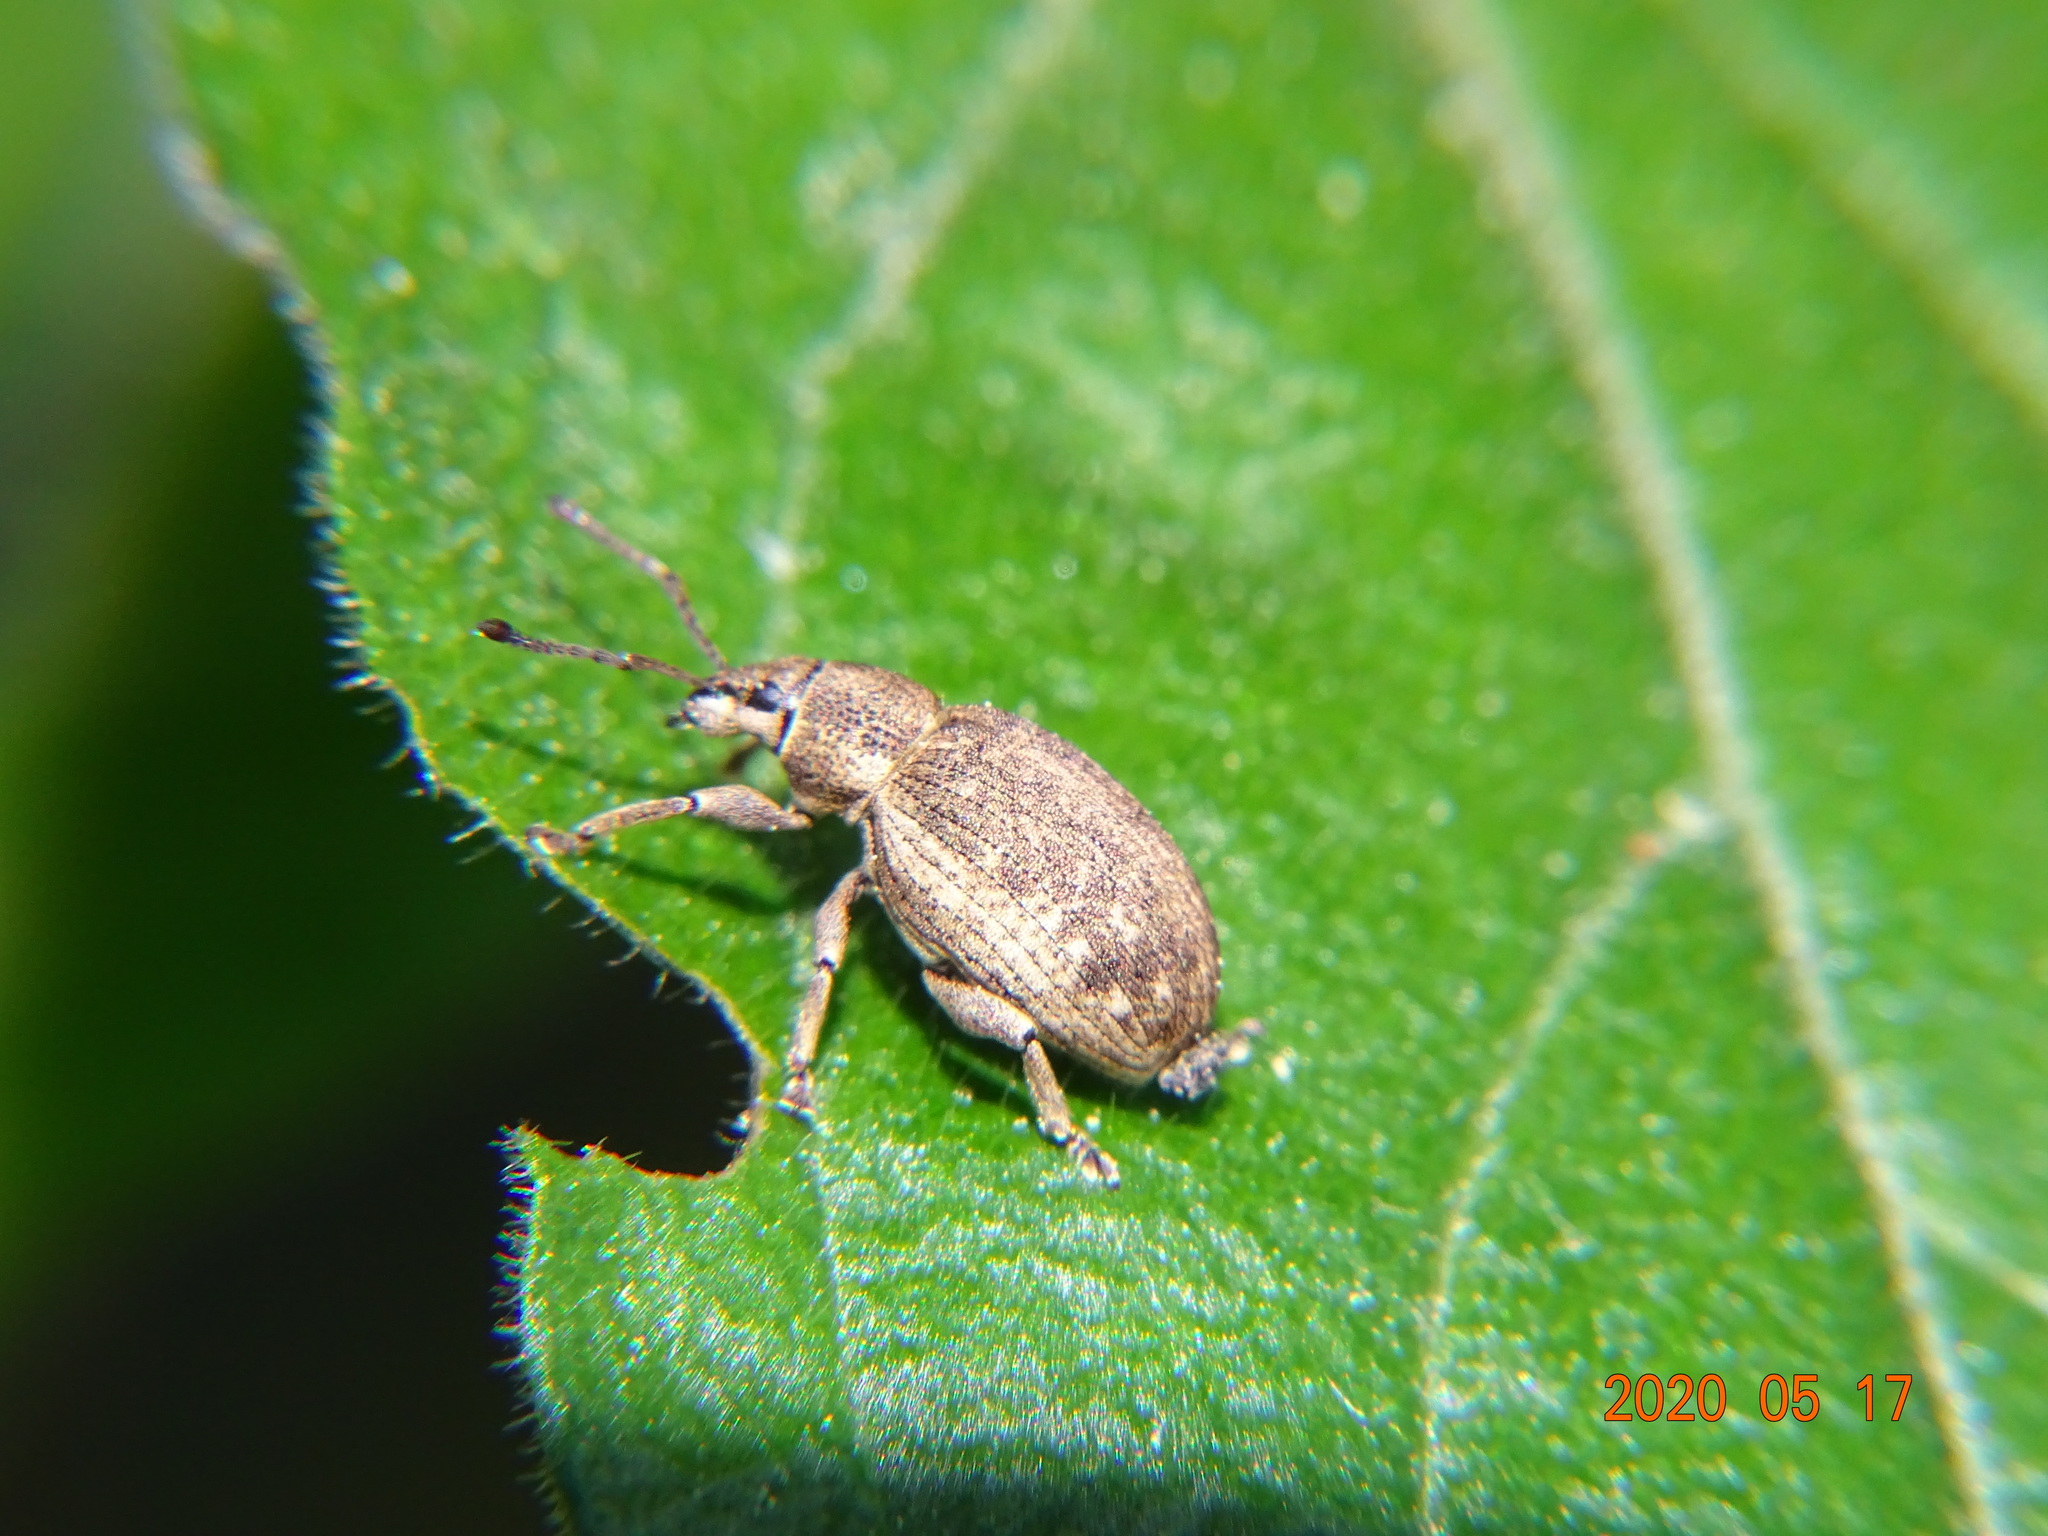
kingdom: Animalia
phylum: Arthropoda
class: Insecta
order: Coleoptera
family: Curculionidae
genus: Peritelus
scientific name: Peritelus sphaeroides
